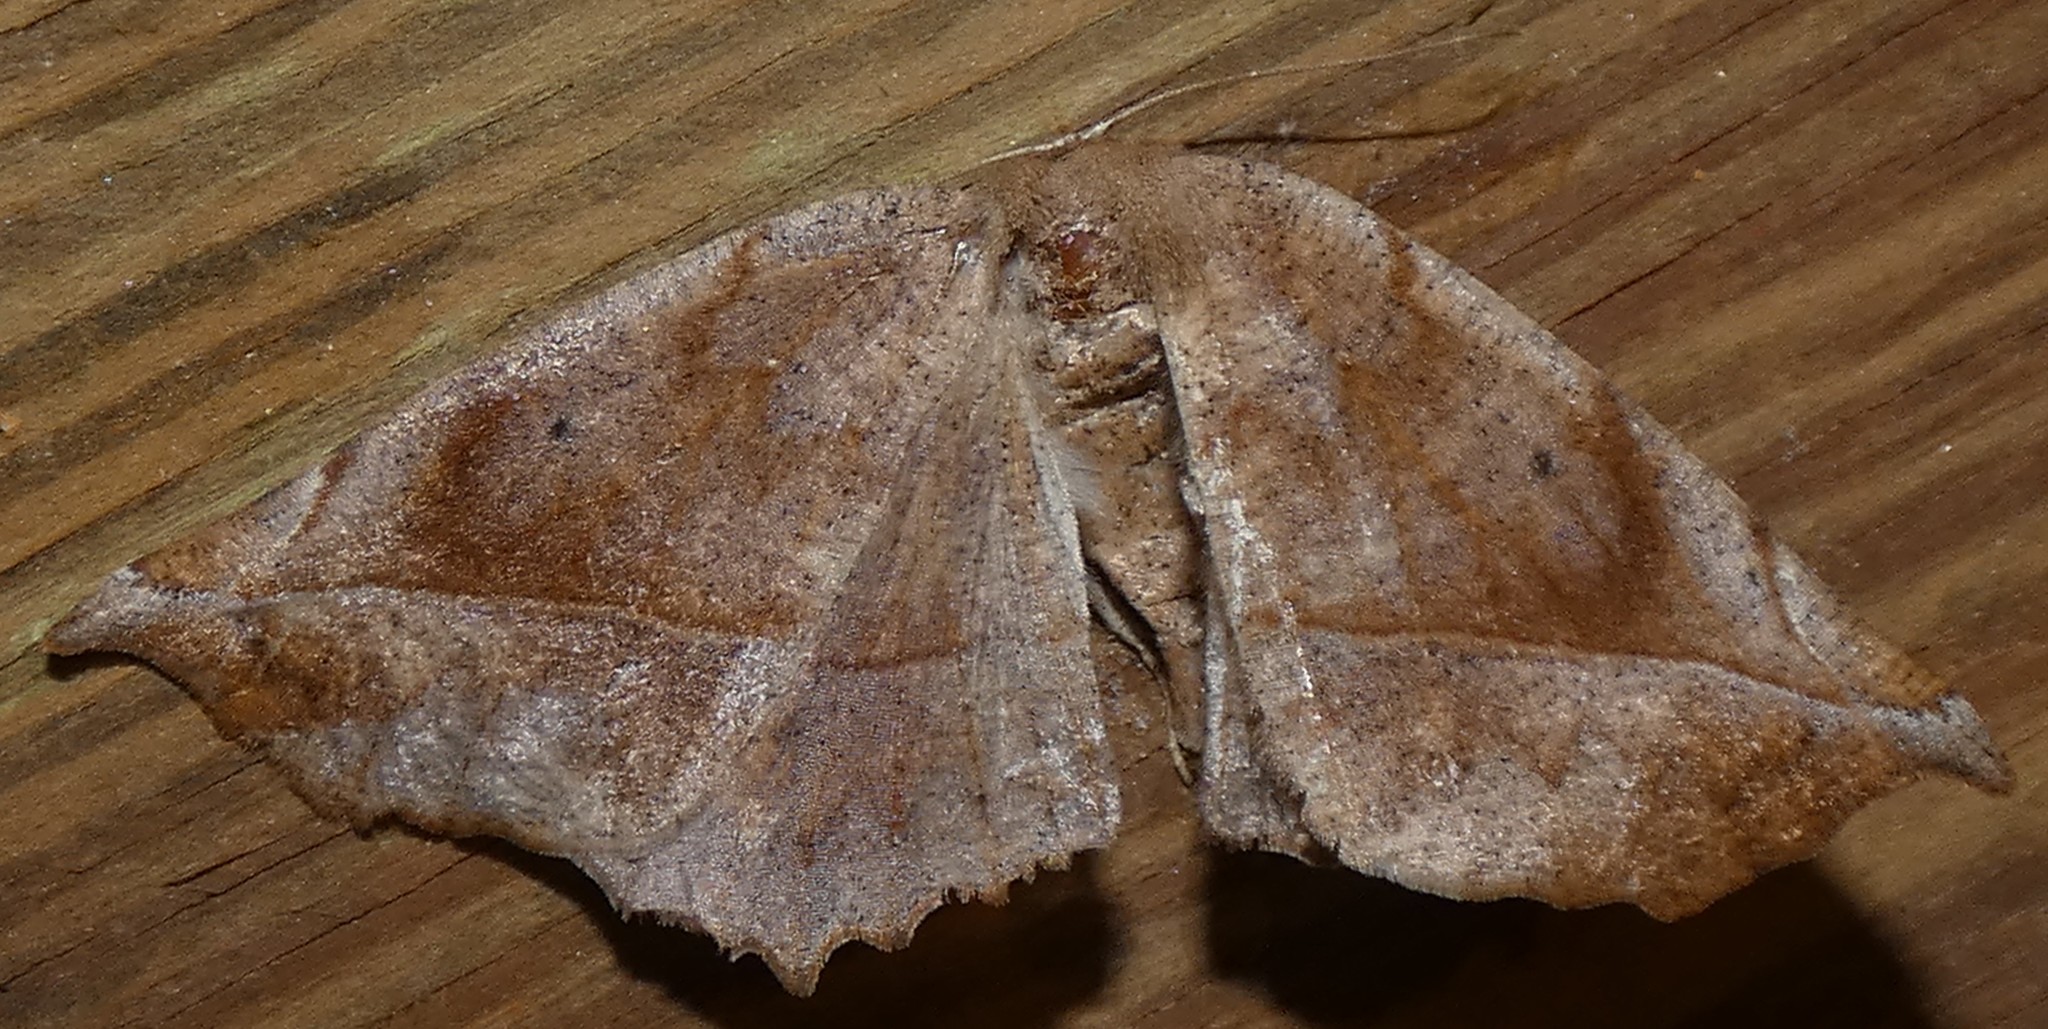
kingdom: Animalia
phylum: Arthropoda
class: Insecta
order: Lepidoptera
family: Geometridae
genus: Eutrapela
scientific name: Eutrapela clemataria
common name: Curved-toothed geometer
